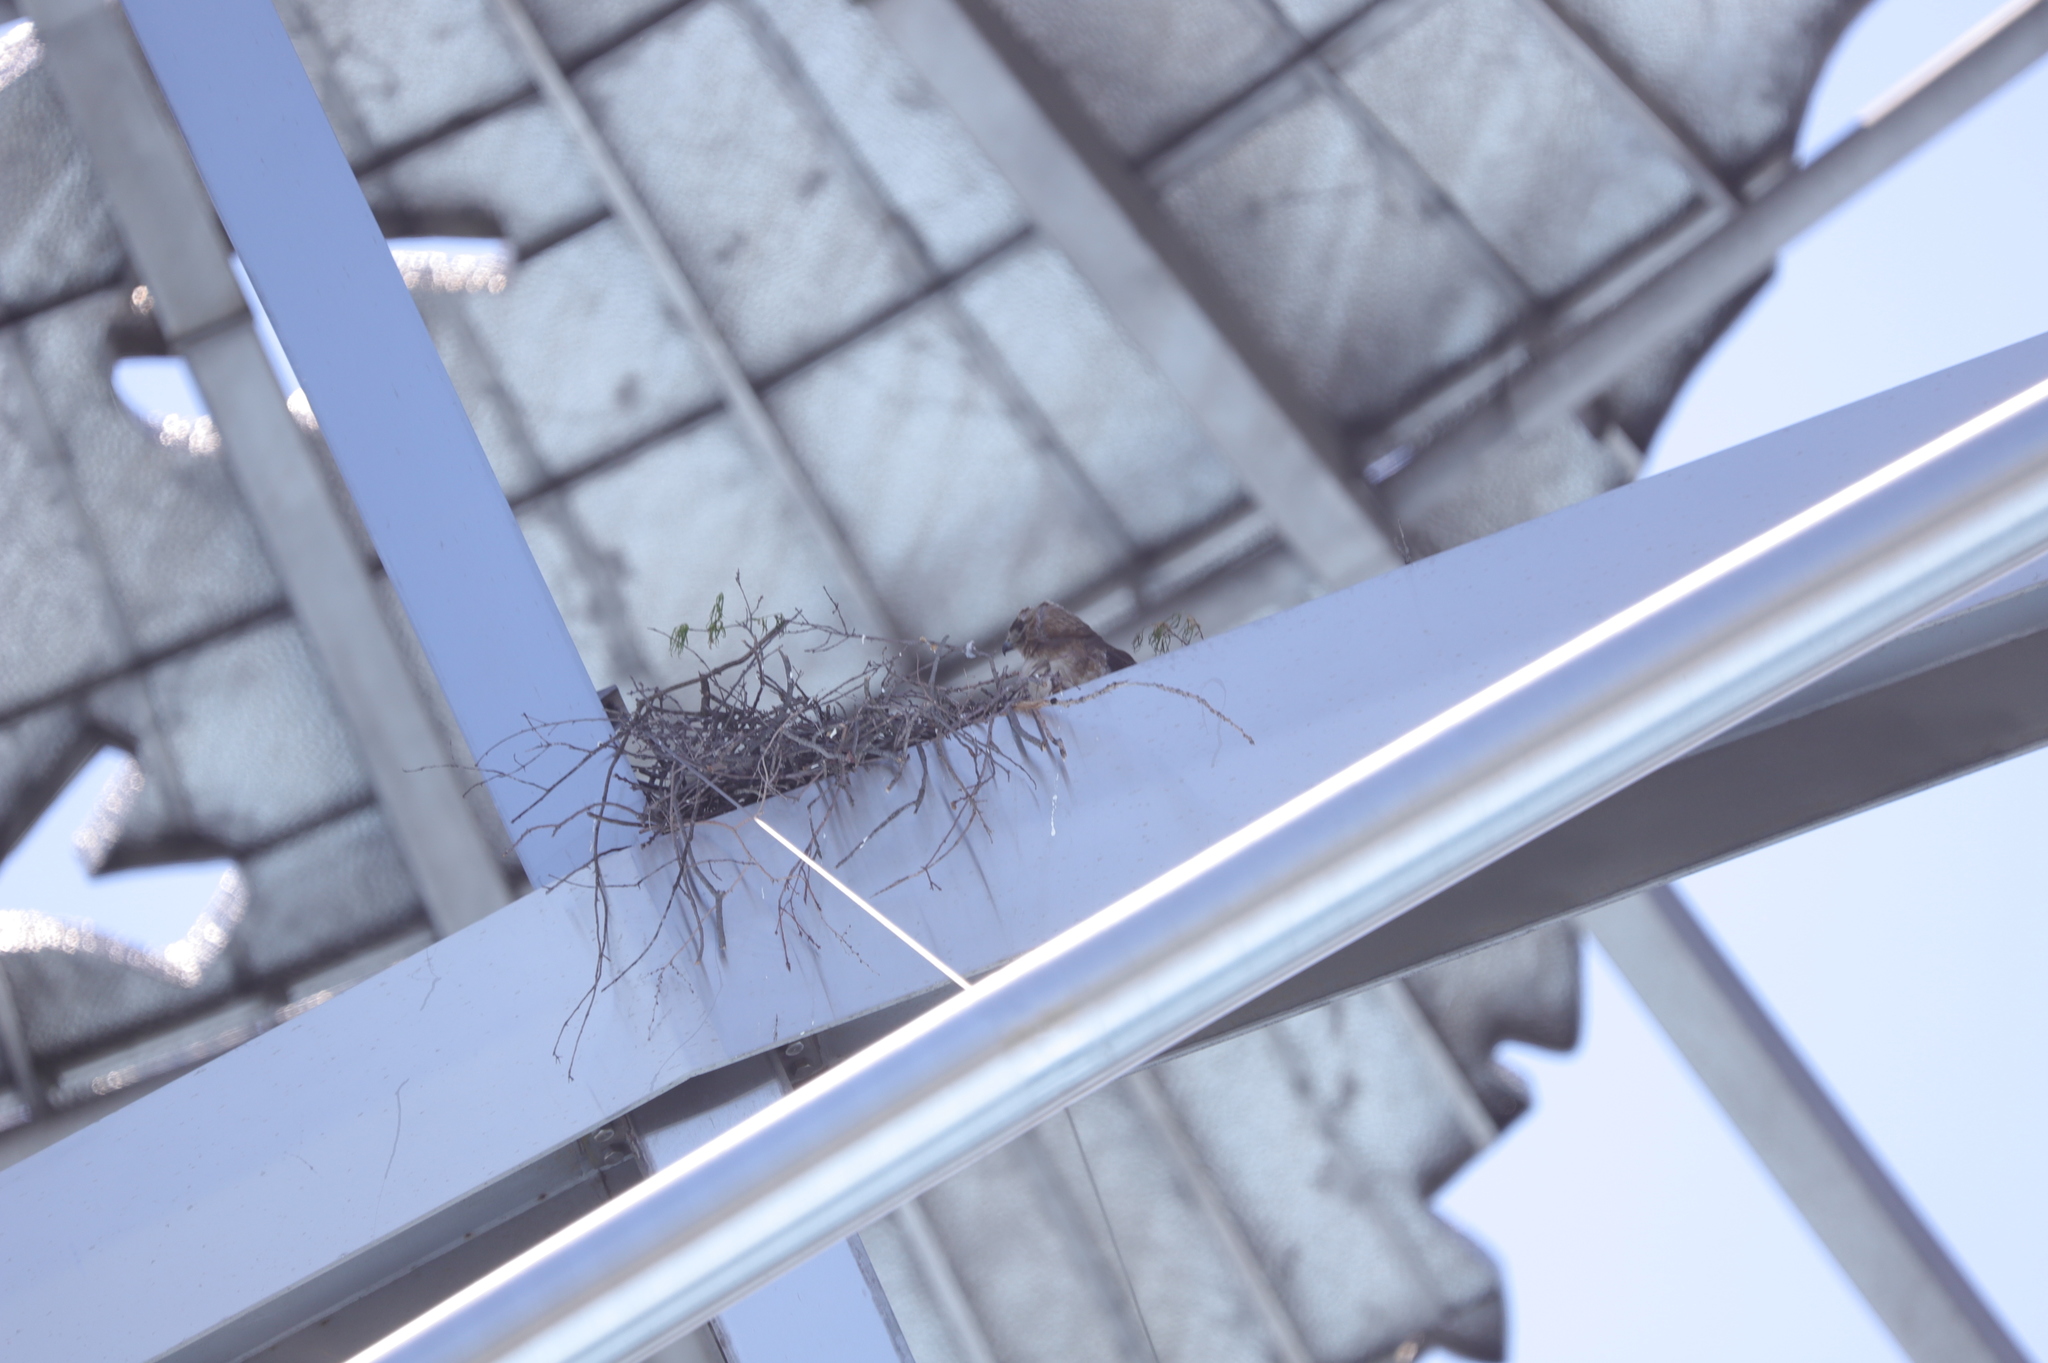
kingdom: Animalia
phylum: Chordata
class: Aves
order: Accipitriformes
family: Accipitridae
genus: Buteo
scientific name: Buteo jamaicensis
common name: Red-tailed hawk
